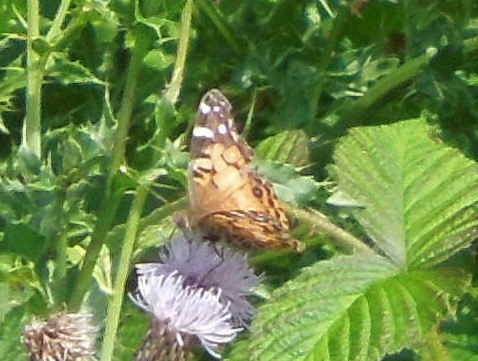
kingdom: Animalia
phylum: Arthropoda
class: Insecta
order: Lepidoptera
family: Nymphalidae
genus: Vanessa
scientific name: Vanessa virginiensis
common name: American lady
